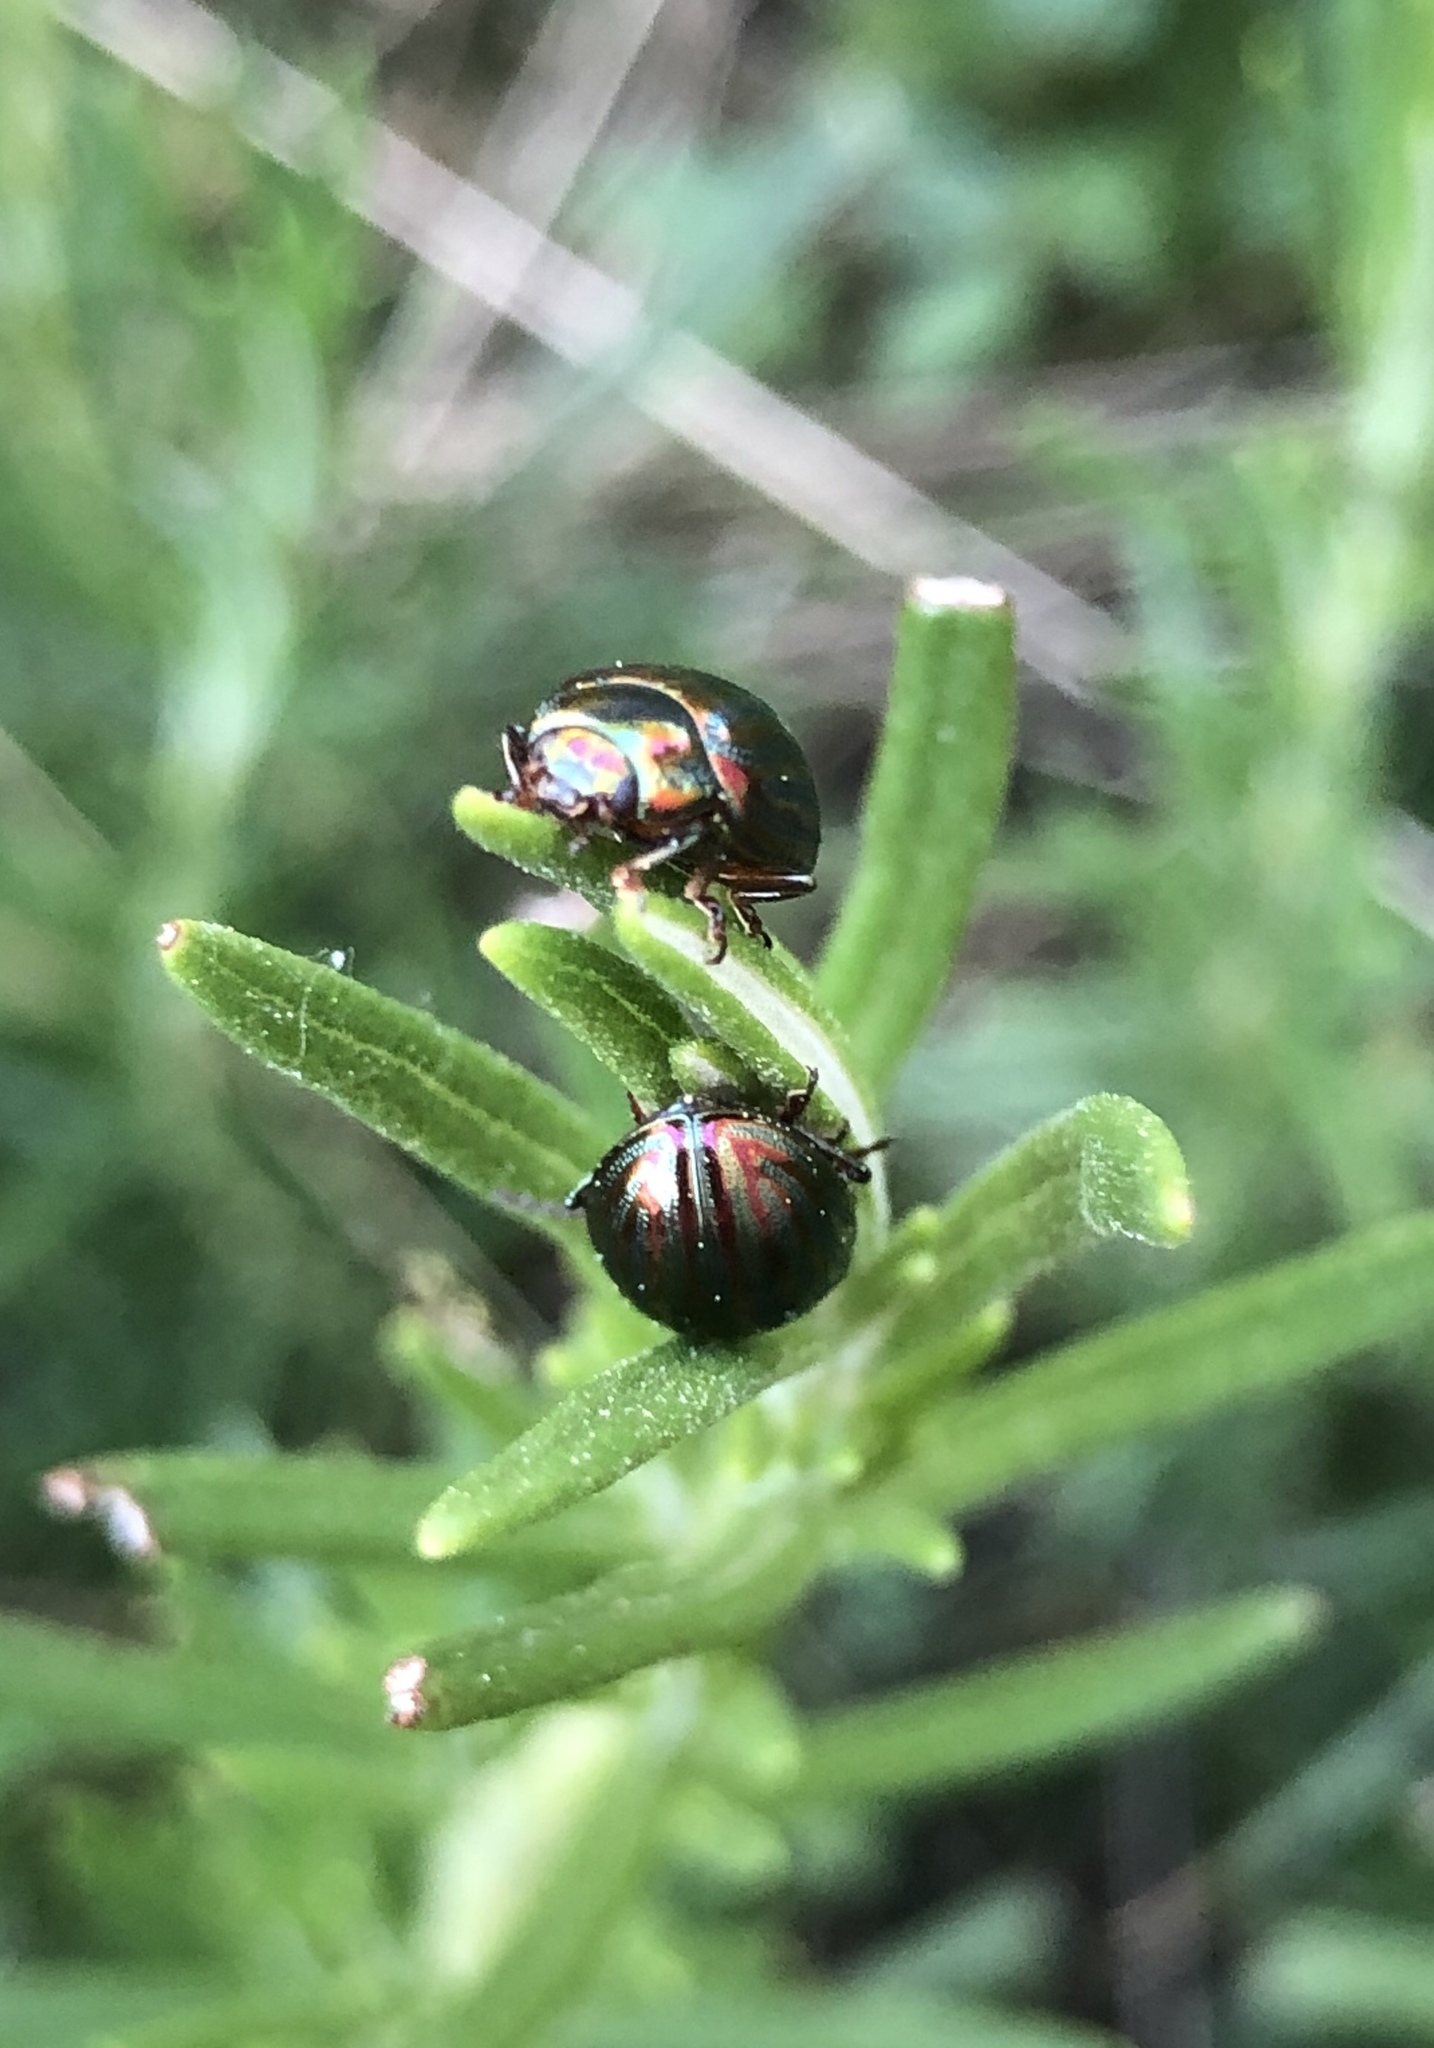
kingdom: Animalia
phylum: Arthropoda
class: Insecta
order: Coleoptera
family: Chrysomelidae
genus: Chrysolina
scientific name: Chrysolina americana
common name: Rosemary beetle
